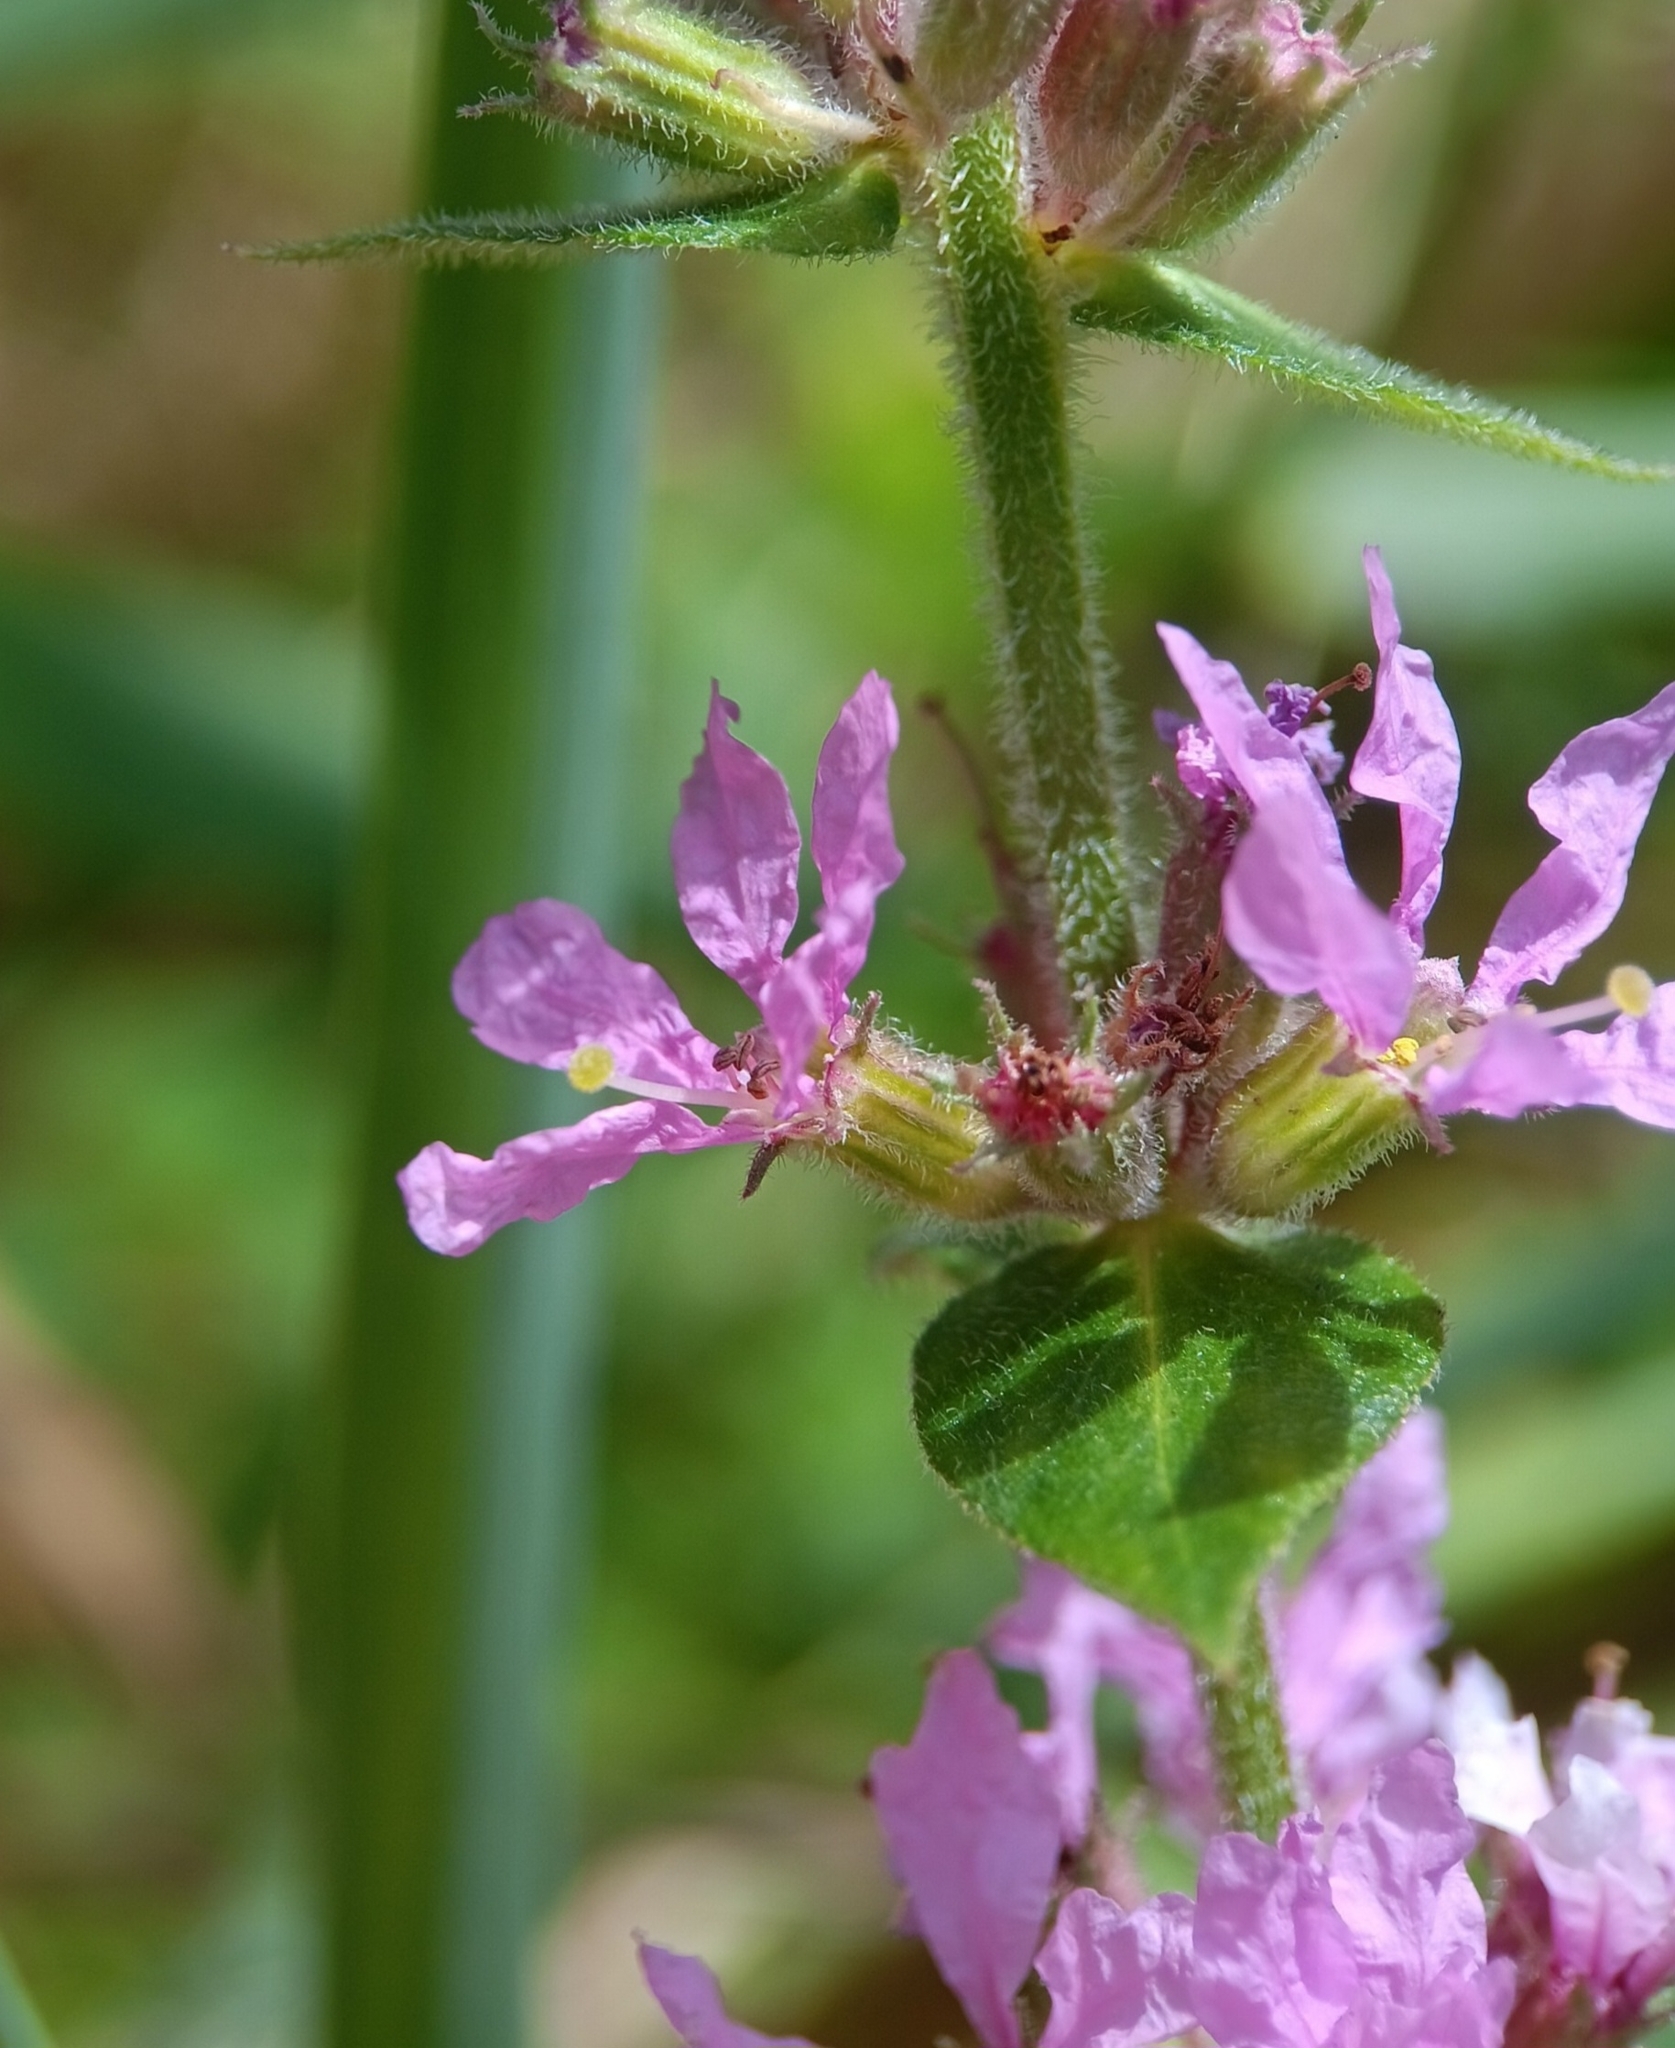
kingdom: Plantae
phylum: Tracheophyta
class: Magnoliopsida
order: Myrtales
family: Lythraceae
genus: Lythrum
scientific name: Lythrum salicaria
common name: Purple loosestrife
